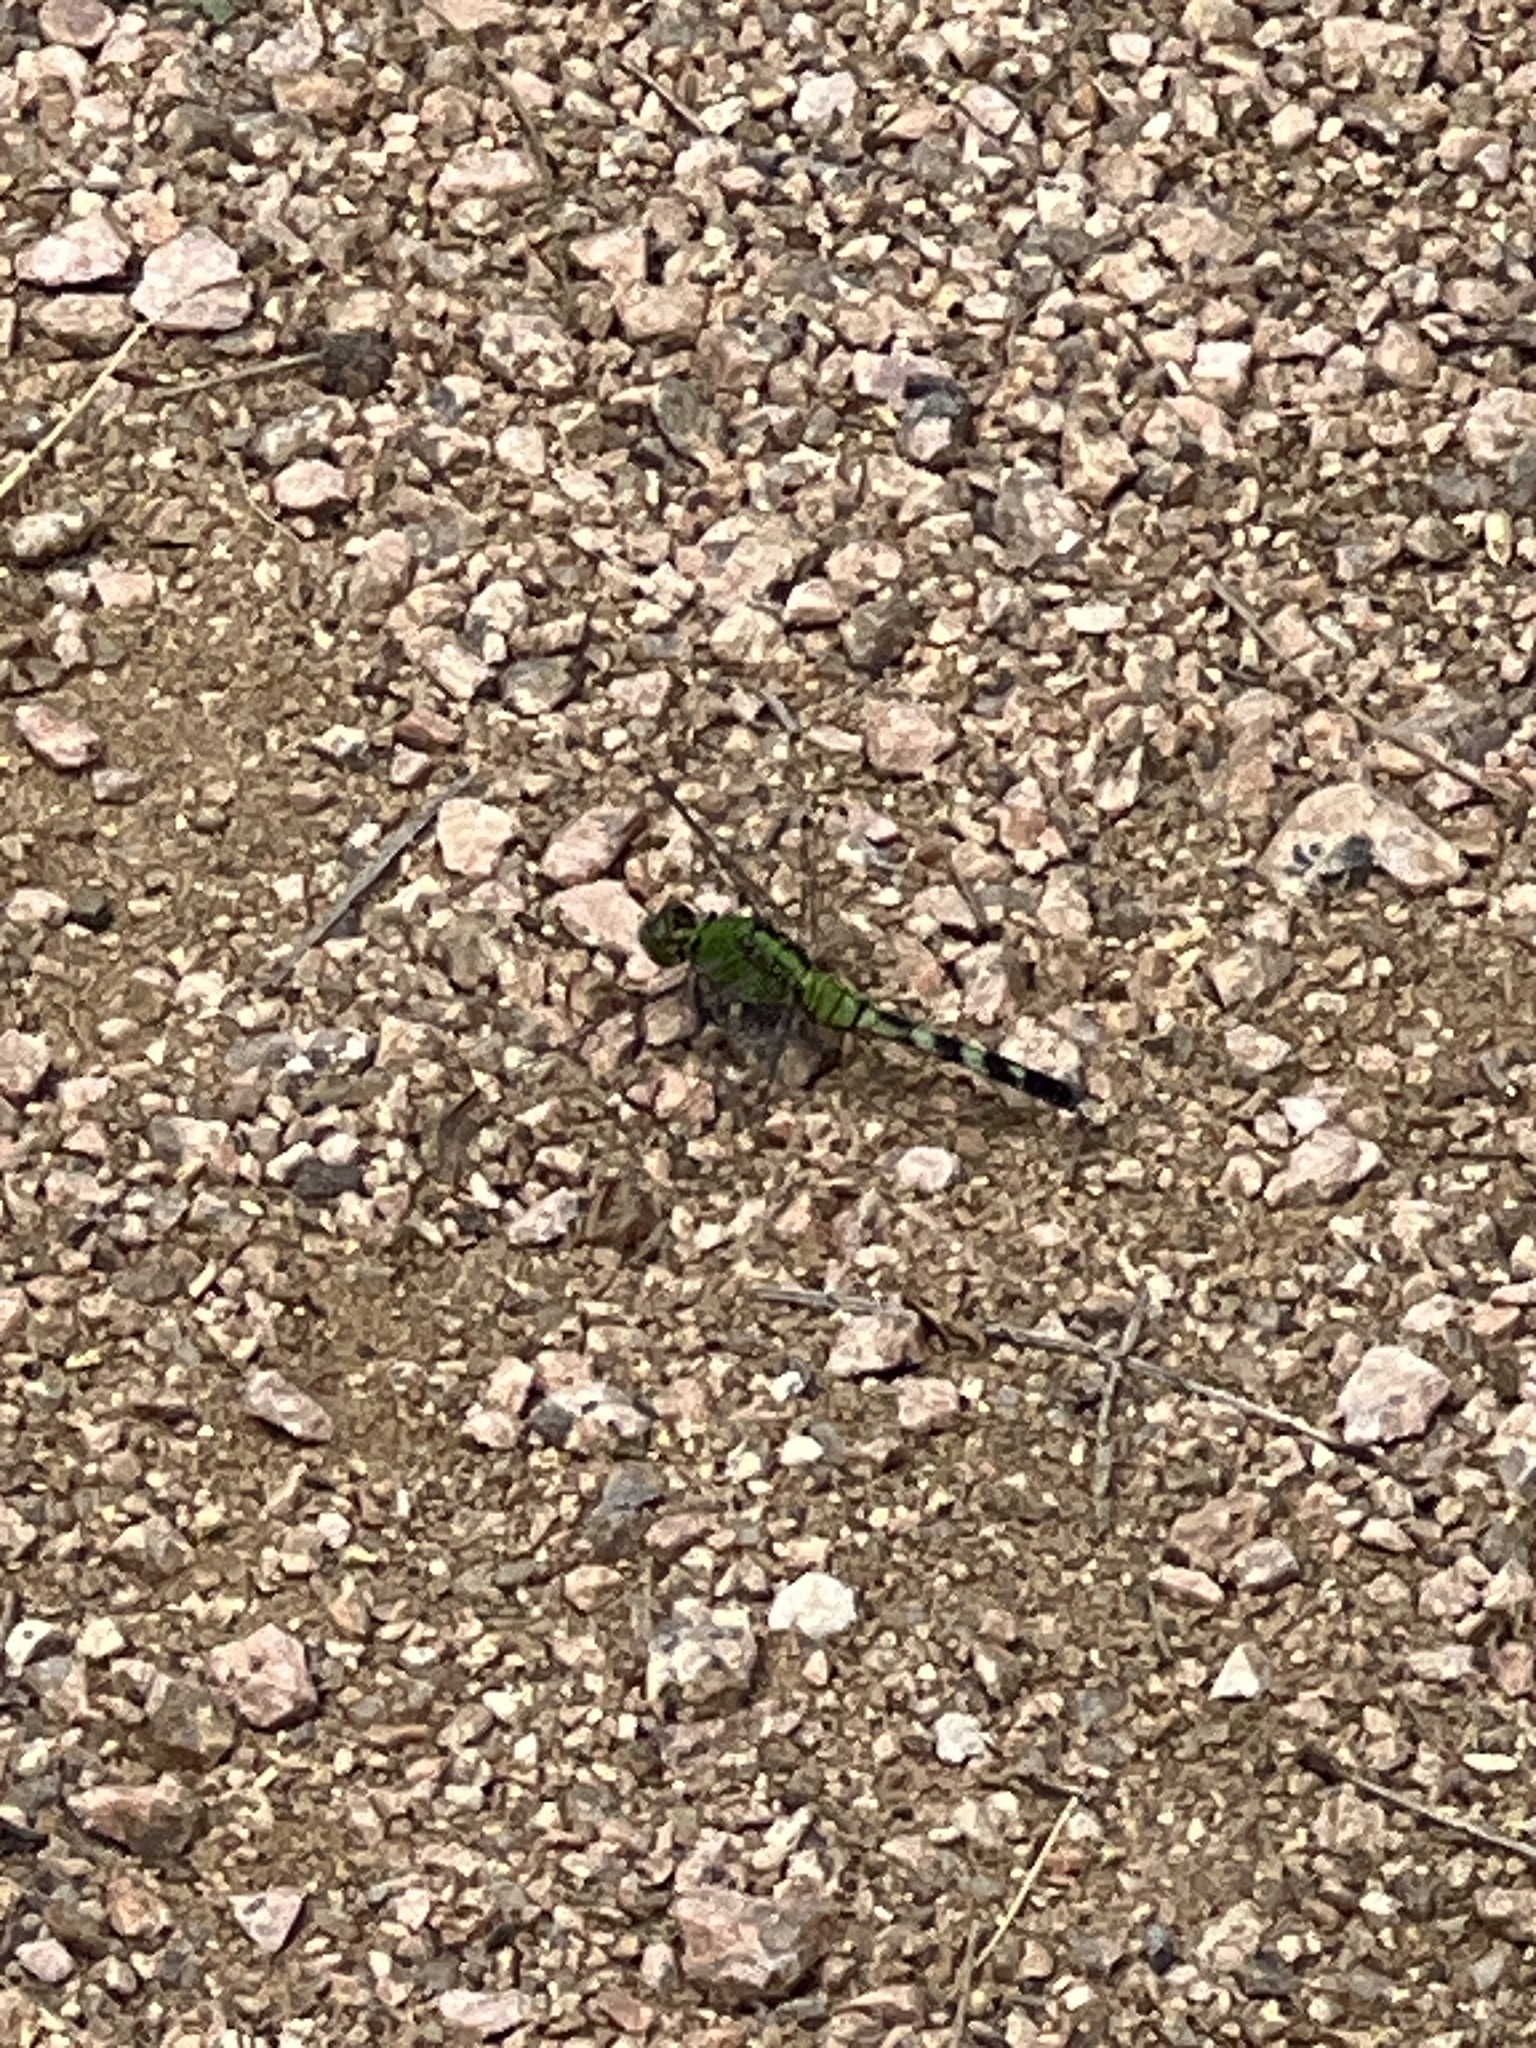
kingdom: Animalia
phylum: Arthropoda
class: Insecta
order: Odonata
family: Libellulidae
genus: Erythemis
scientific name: Erythemis simplicicollis
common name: Eastern pondhawk
